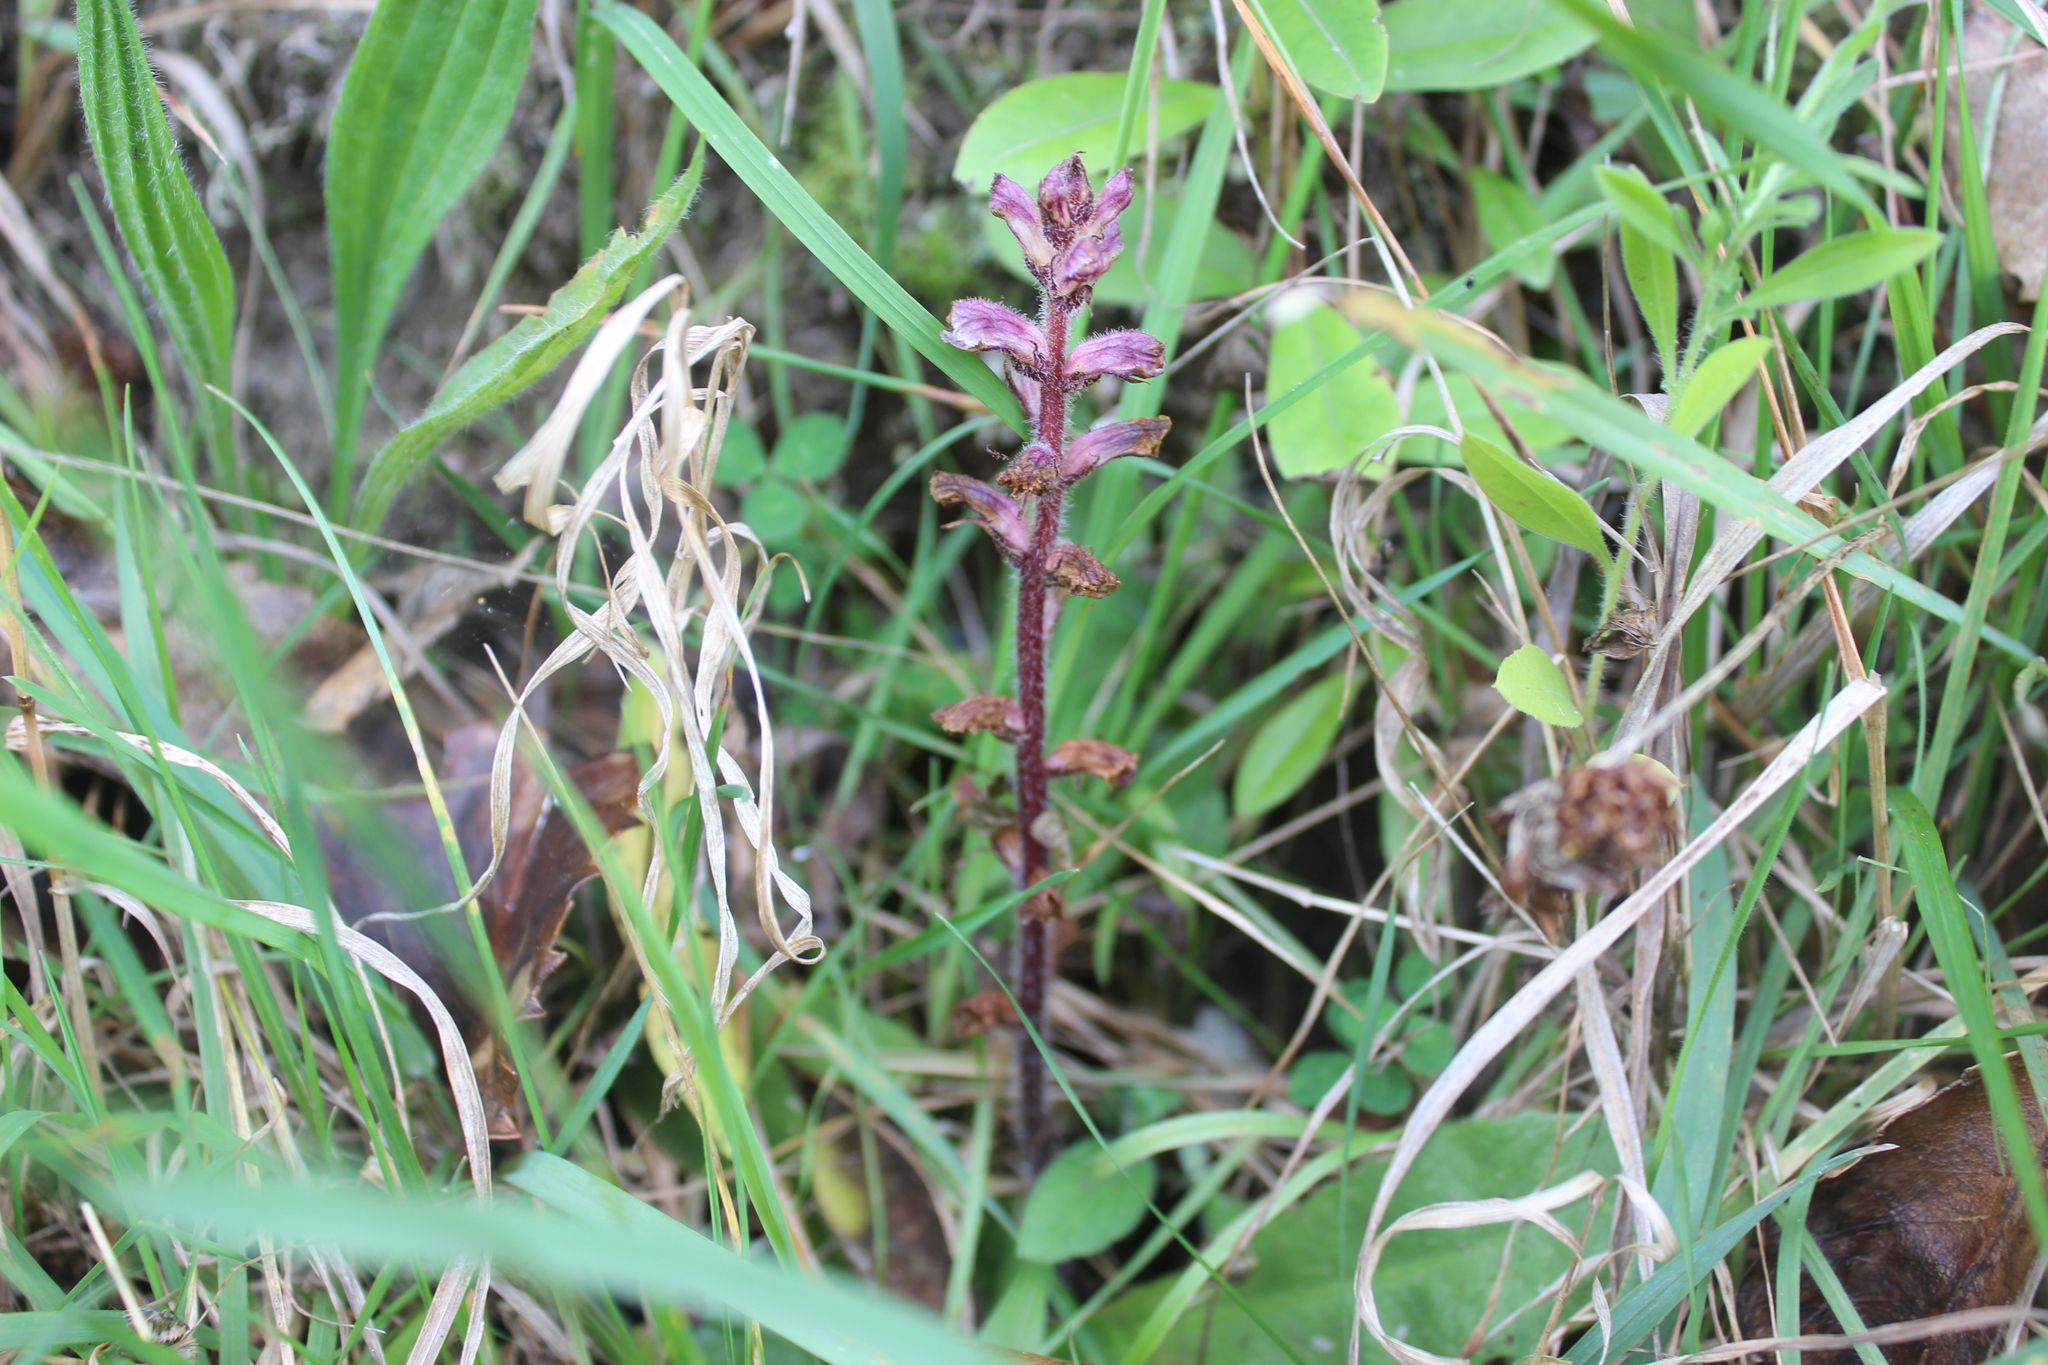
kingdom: Plantae
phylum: Tracheophyta
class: Magnoliopsida
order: Lamiales
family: Orobanchaceae
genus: Orobanche
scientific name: Orobanche minor
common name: Common broomrape
